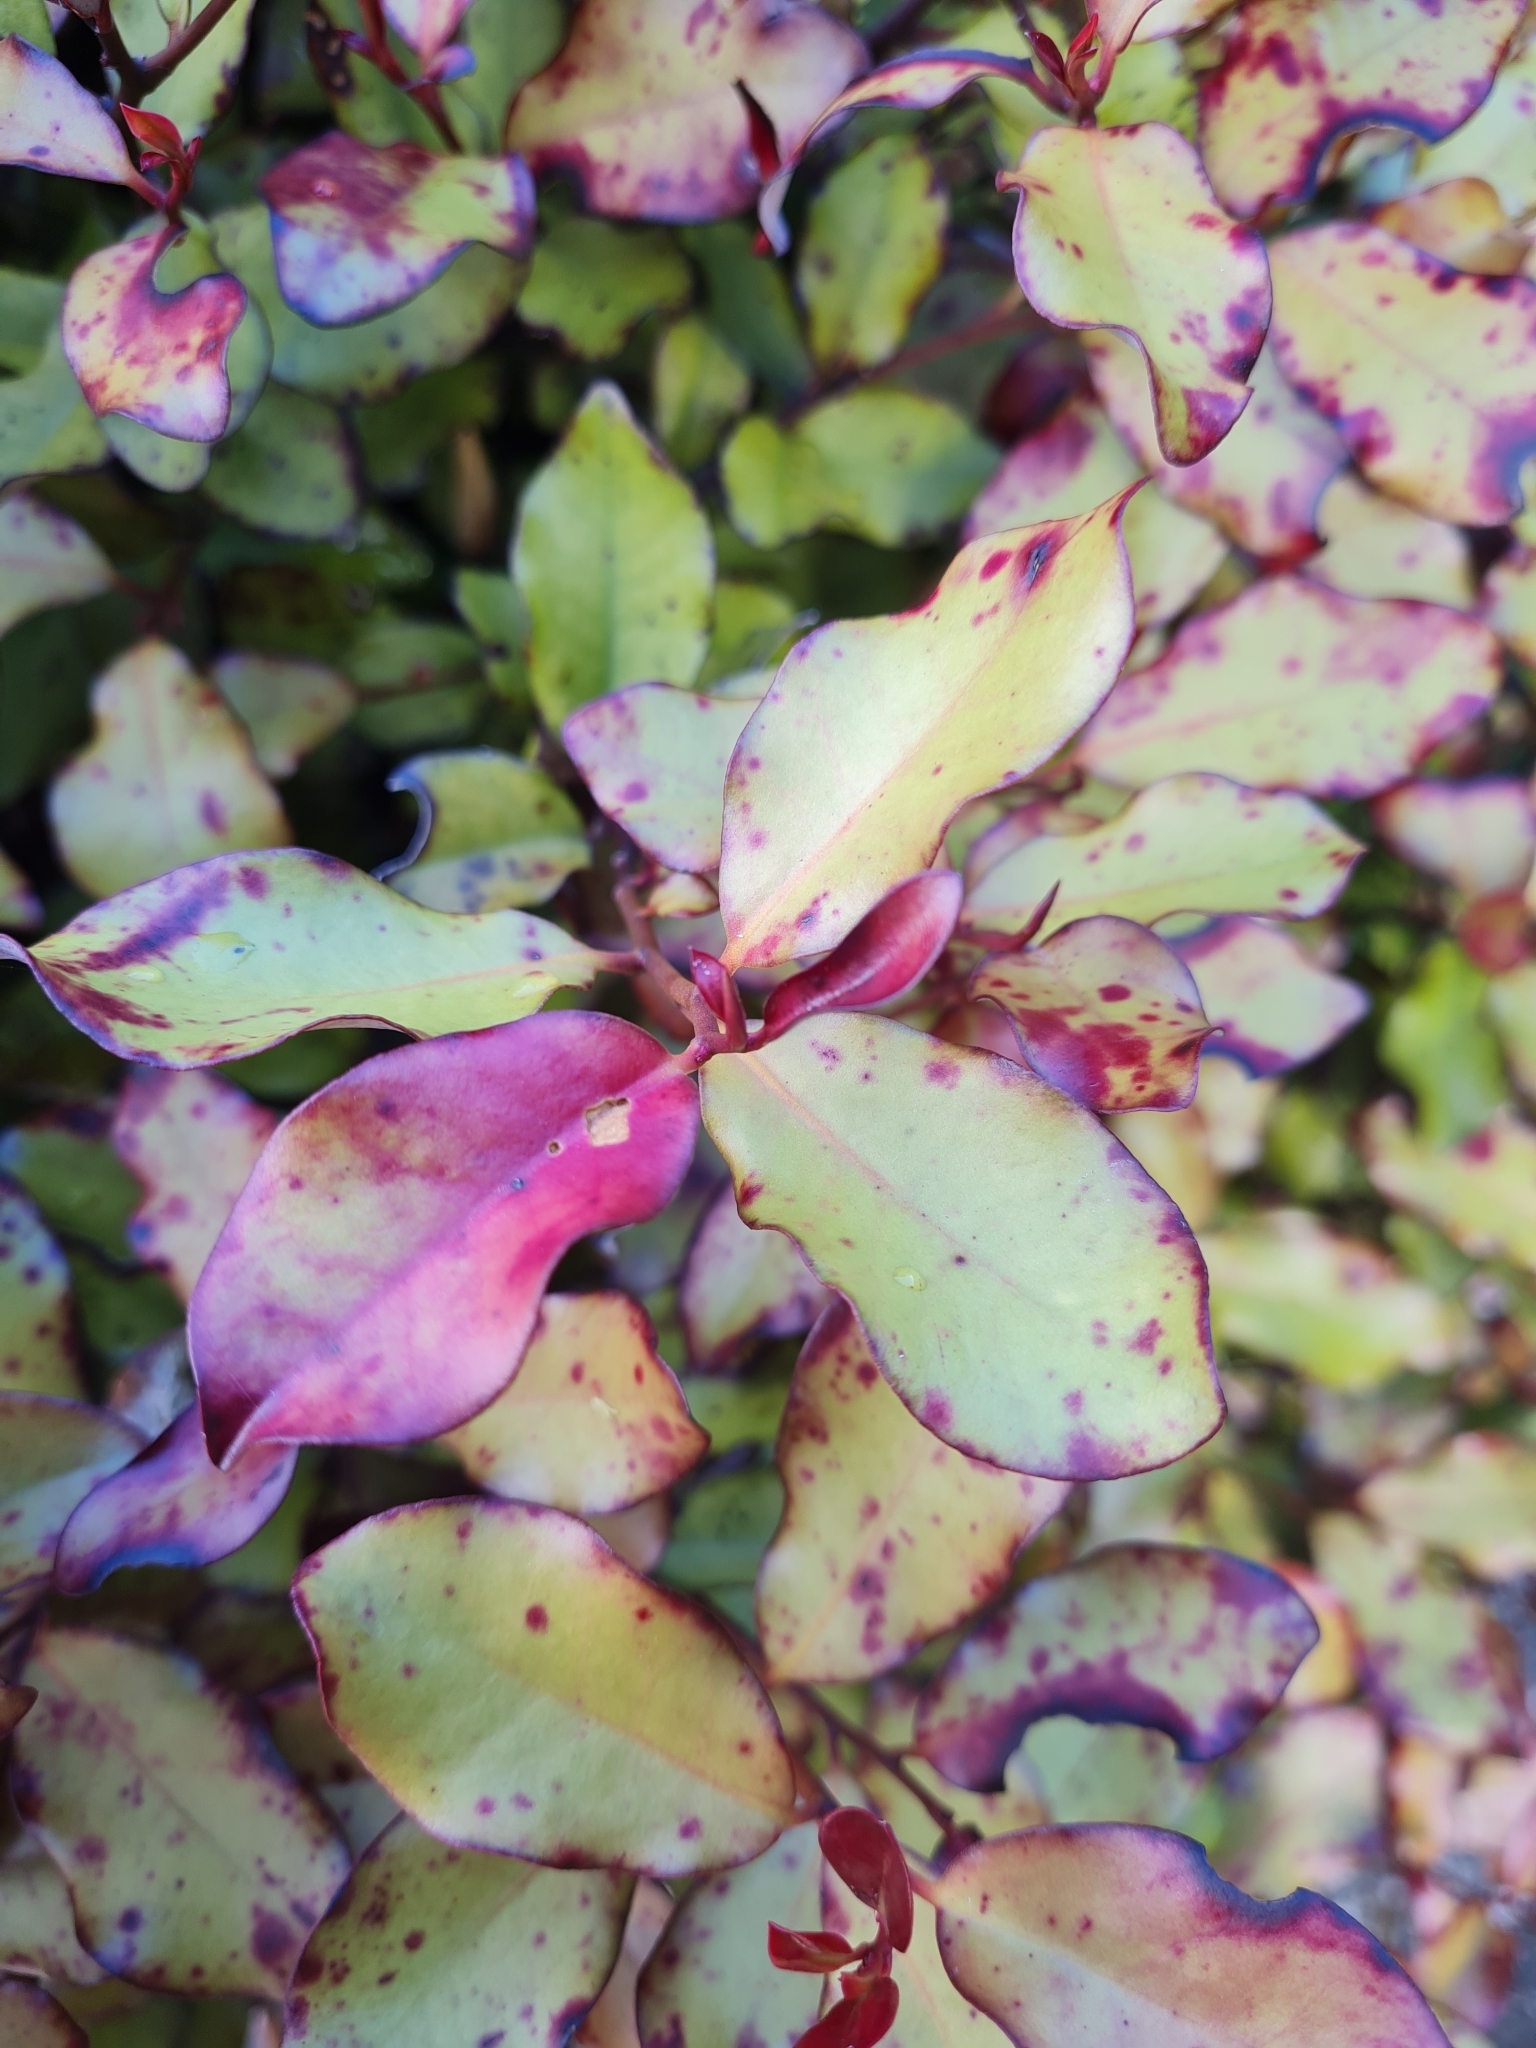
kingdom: Plantae
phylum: Tracheophyta
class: Magnoliopsida
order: Canellales
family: Winteraceae
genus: Pseudowintera
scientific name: Pseudowintera colorata
